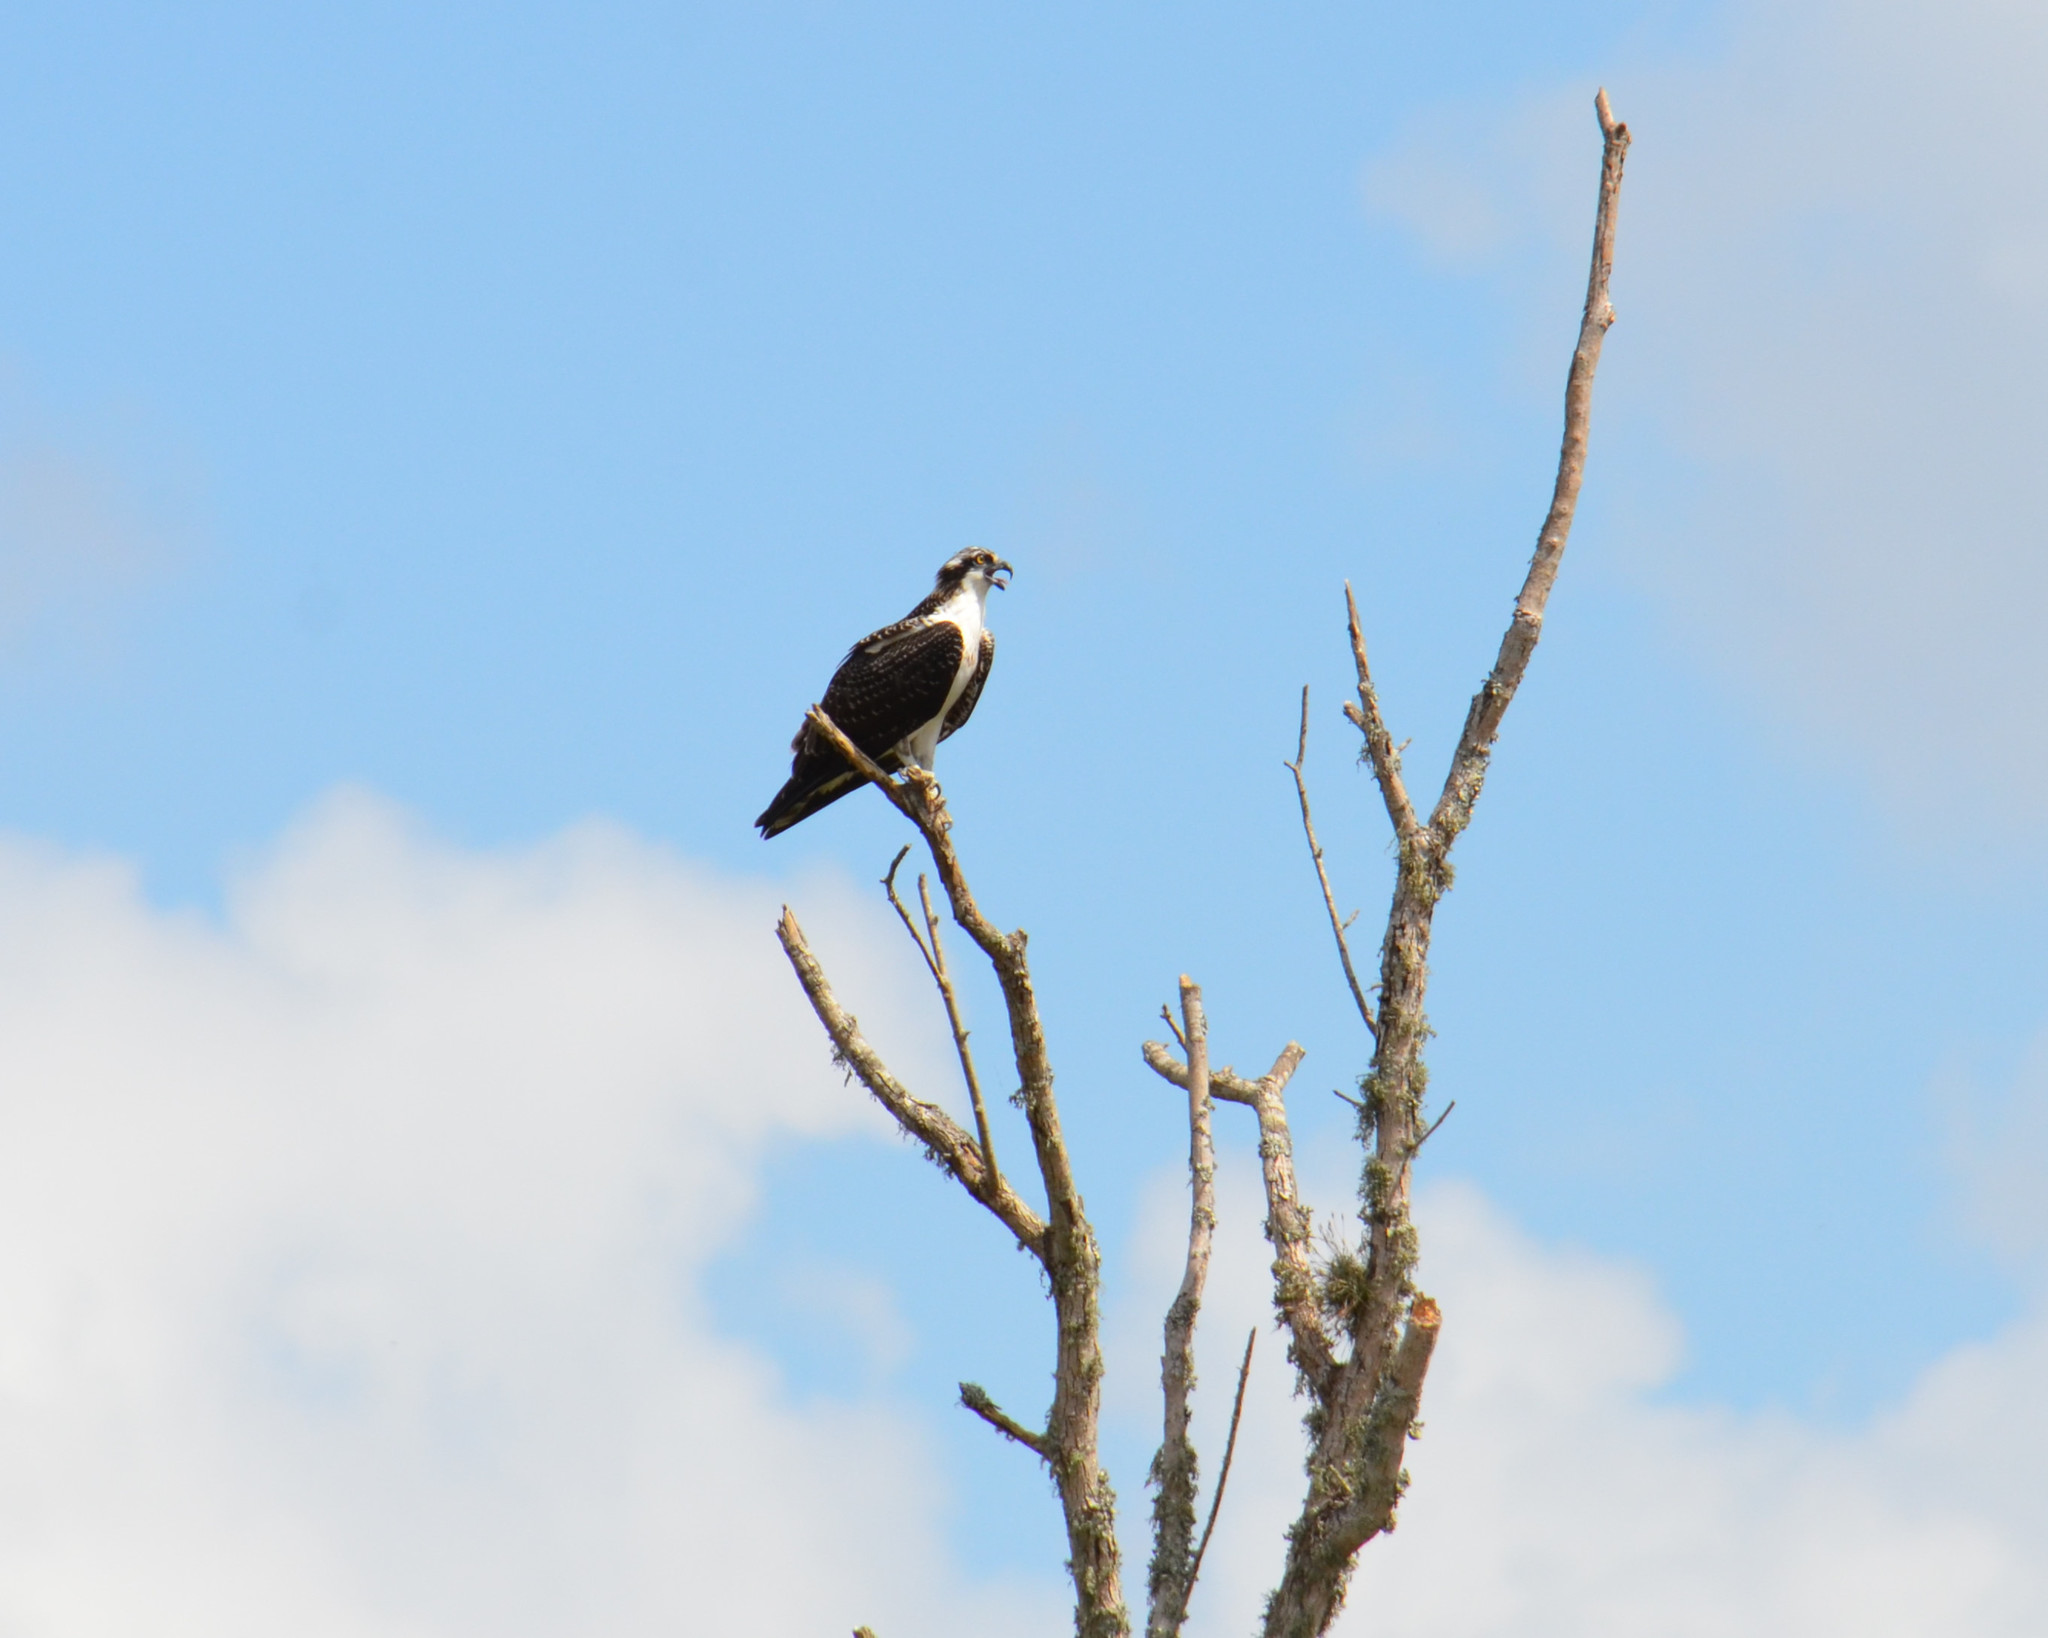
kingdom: Animalia
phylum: Chordata
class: Aves
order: Accipitriformes
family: Pandionidae
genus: Pandion
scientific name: Pandion haliaetus
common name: Osprey
